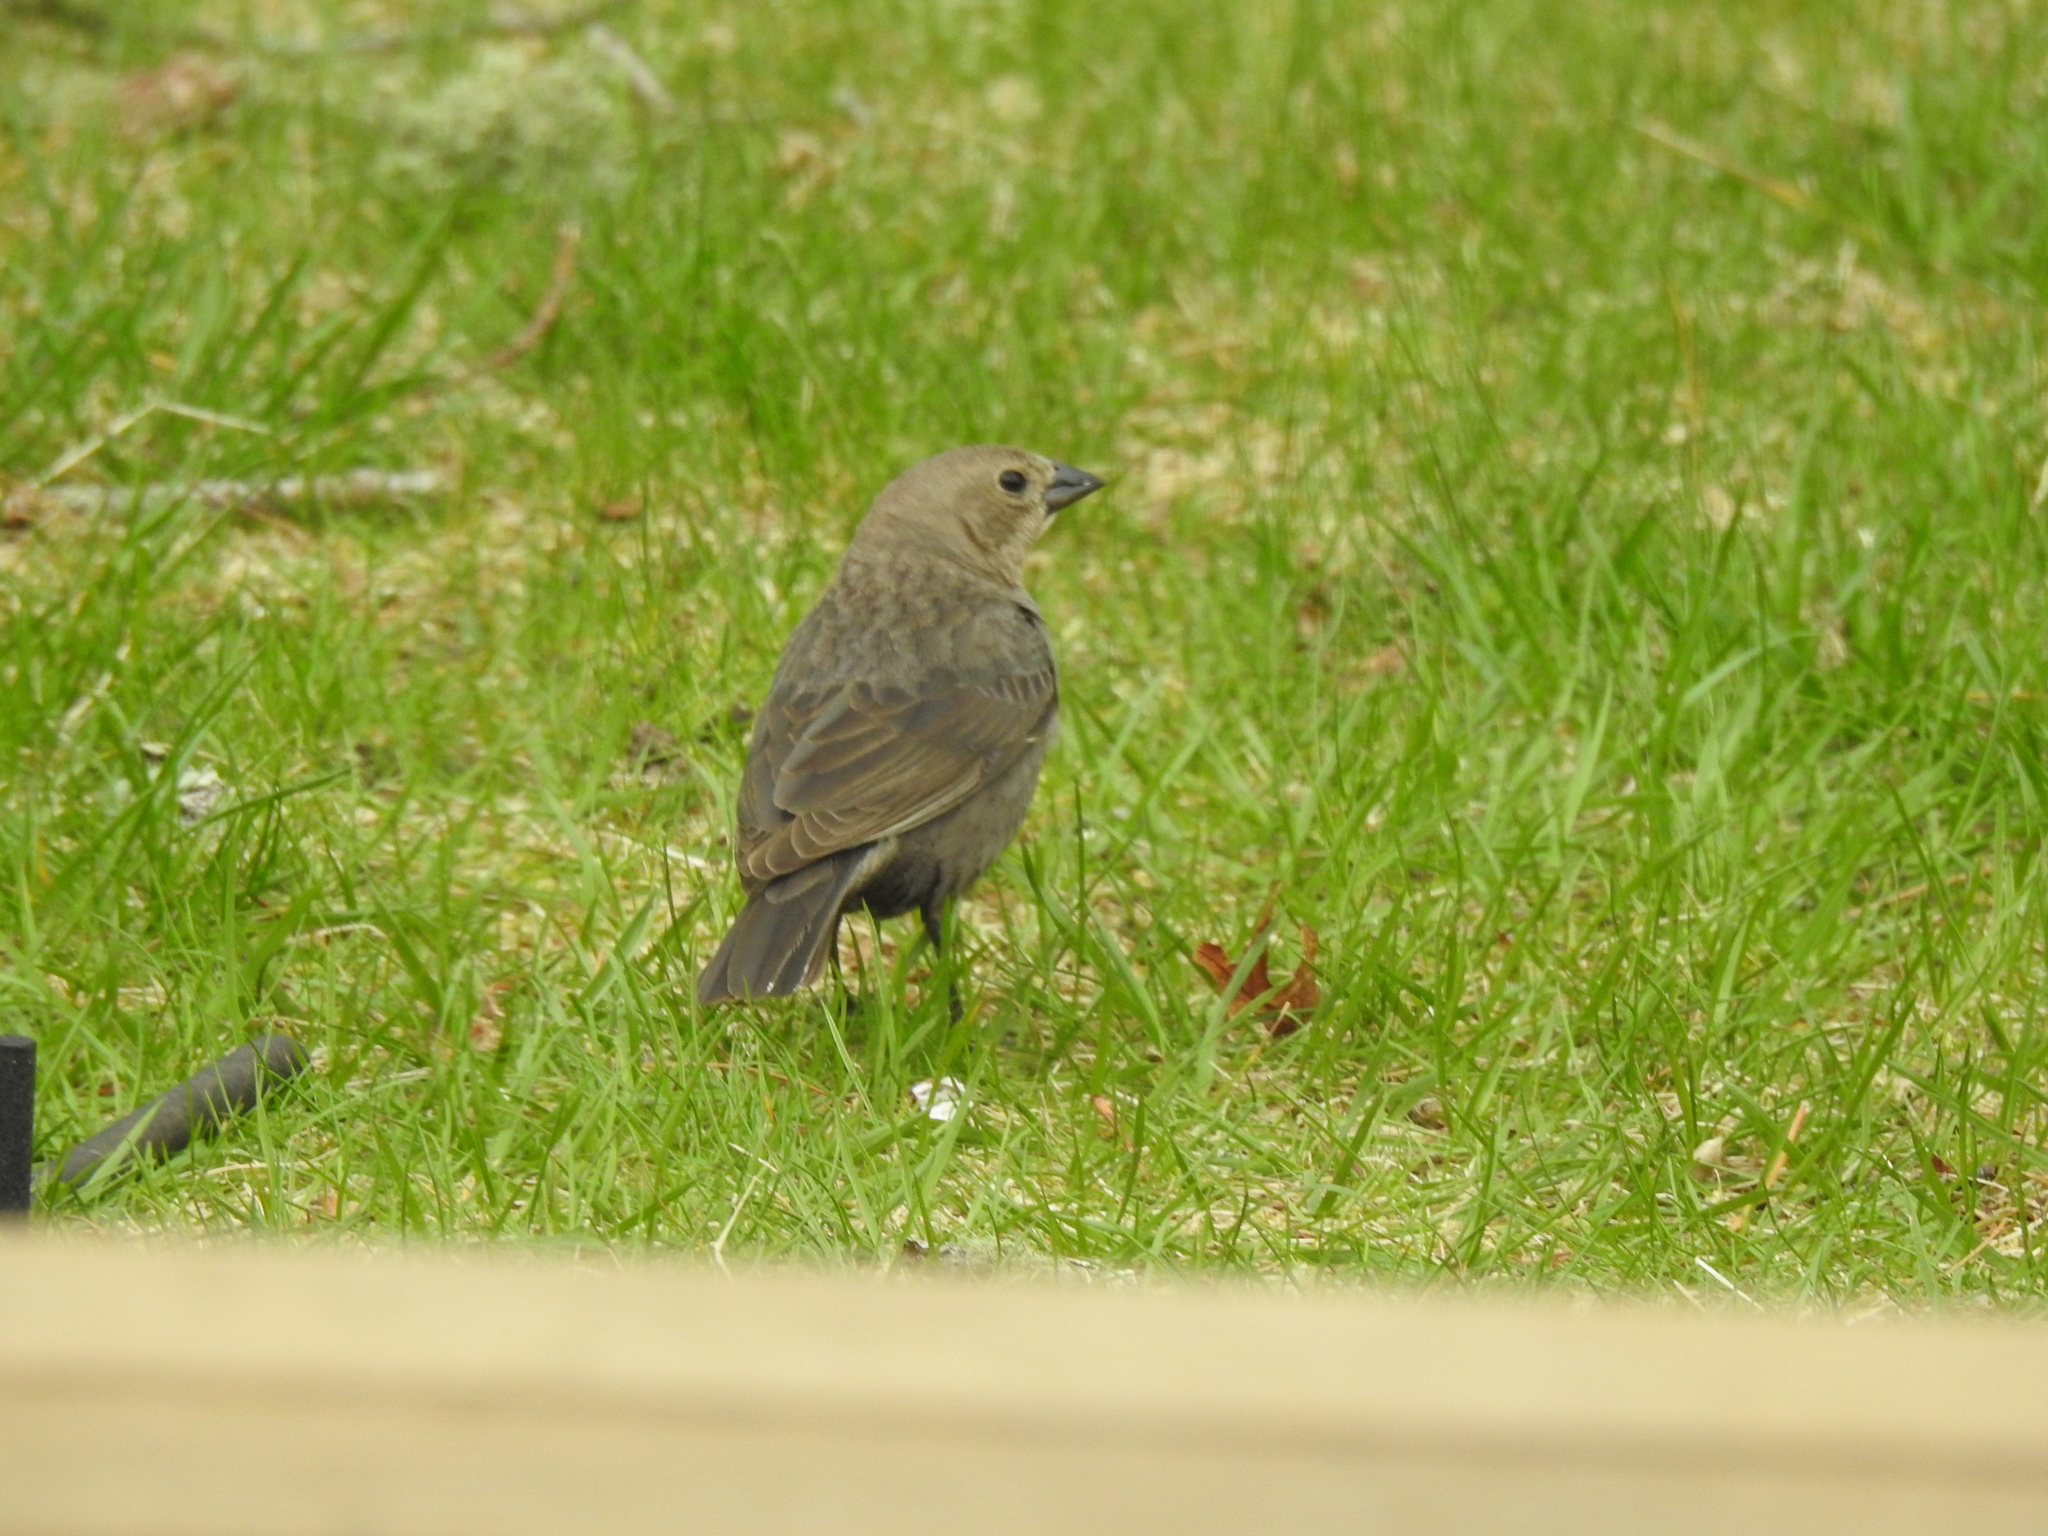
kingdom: Animalia
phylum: Chordata
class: Aves
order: Passeriformes
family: Icteridae
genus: Molothrus
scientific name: Molothrus ater
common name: Brown-headed cowbird
